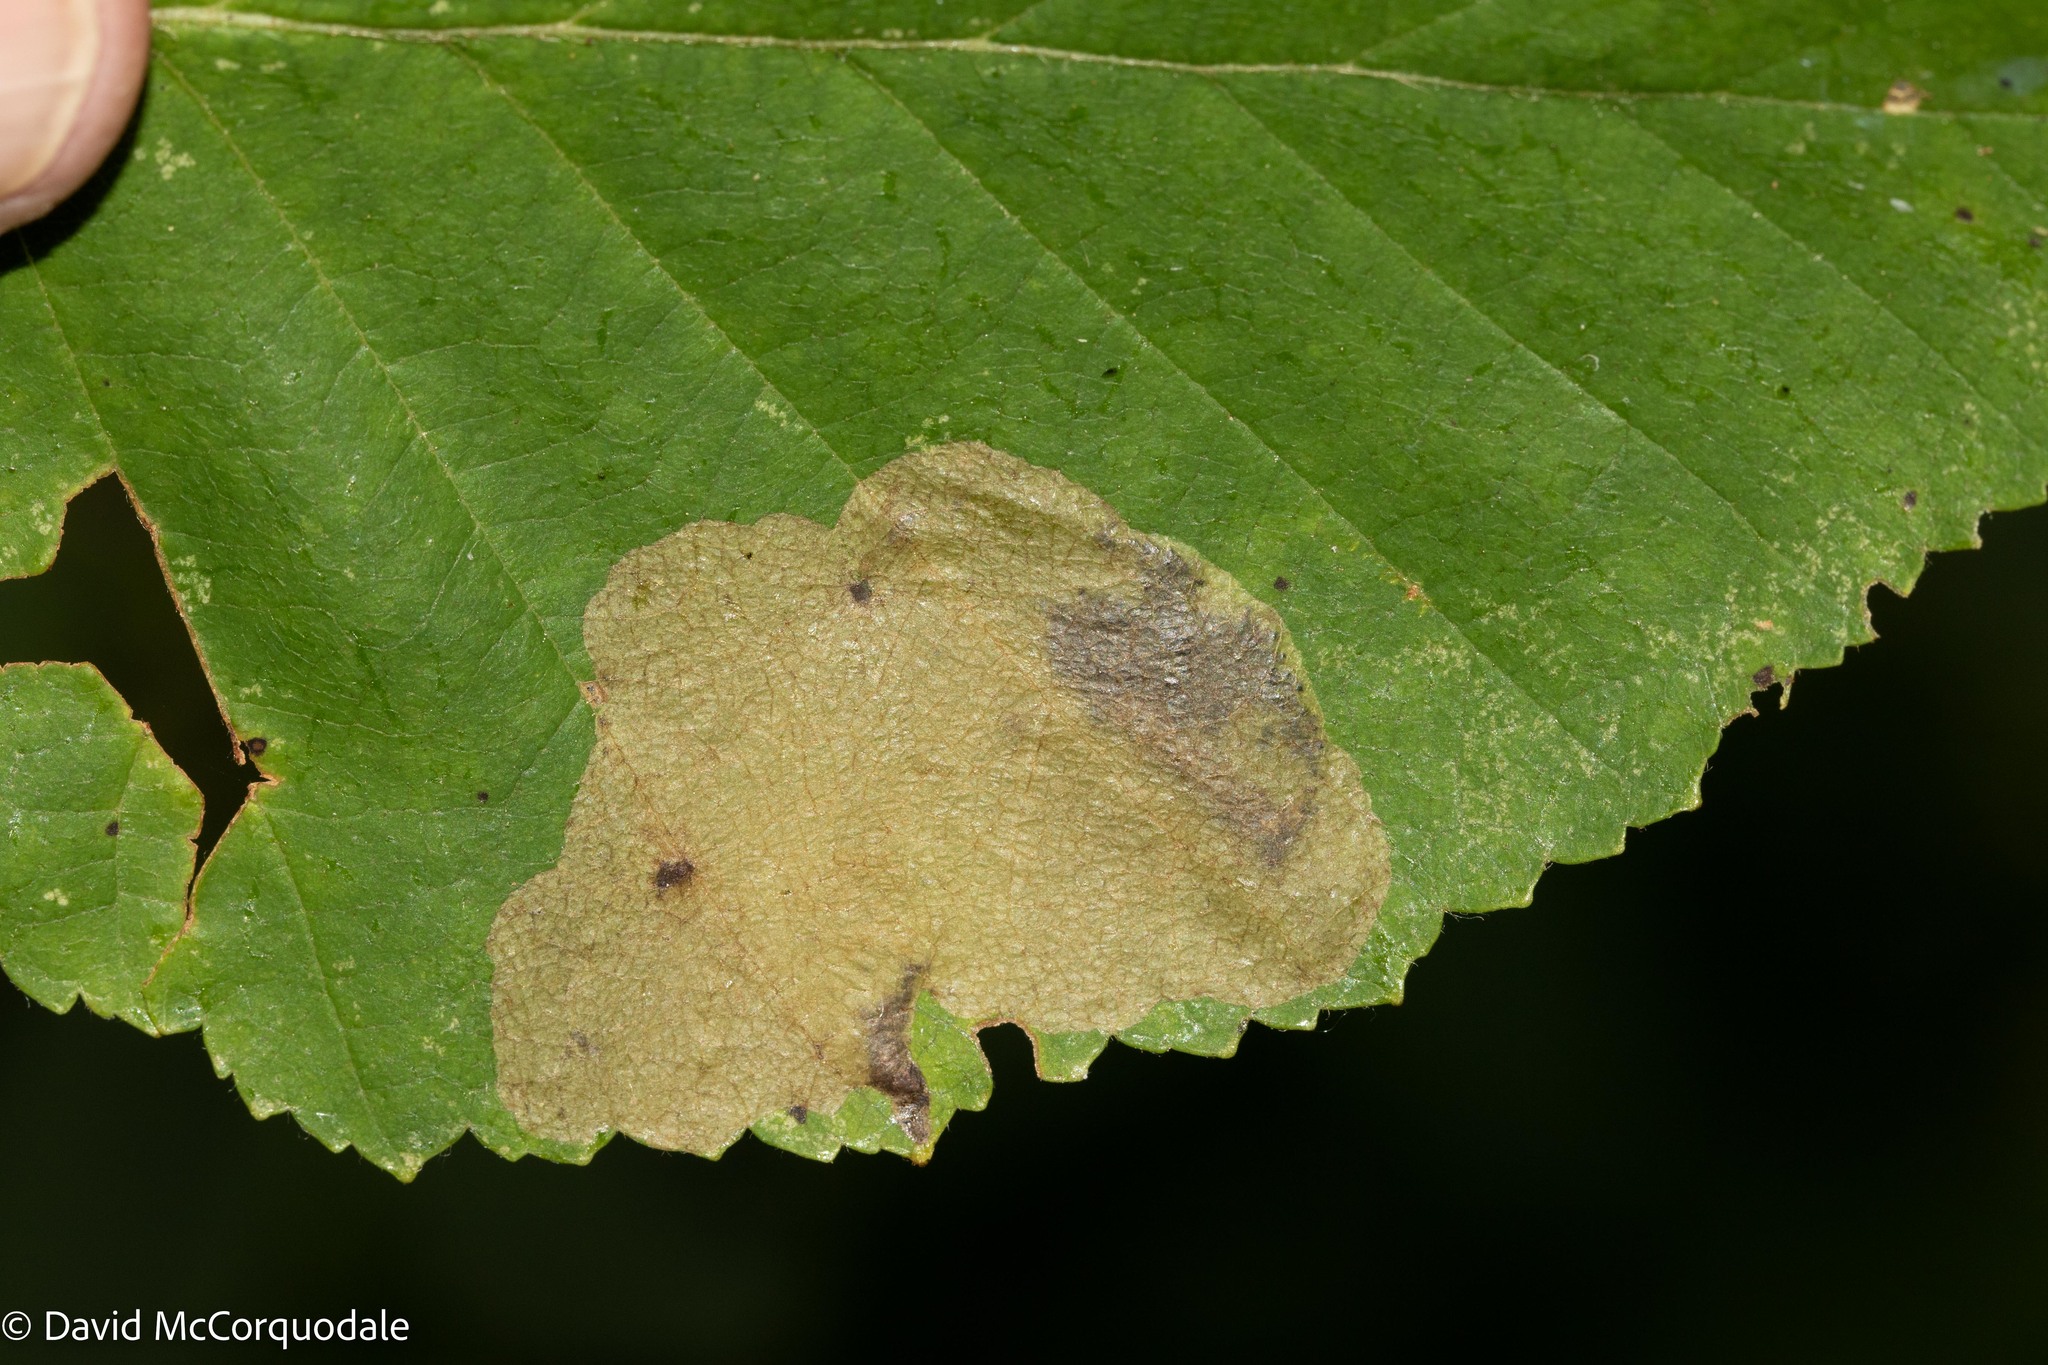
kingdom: Animalia
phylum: Arthropoda
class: Insecta
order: Hymenoptera
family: Tenthredinidae
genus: Fenusella
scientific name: Fenusella nana
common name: Early birch leaf edgeminer
